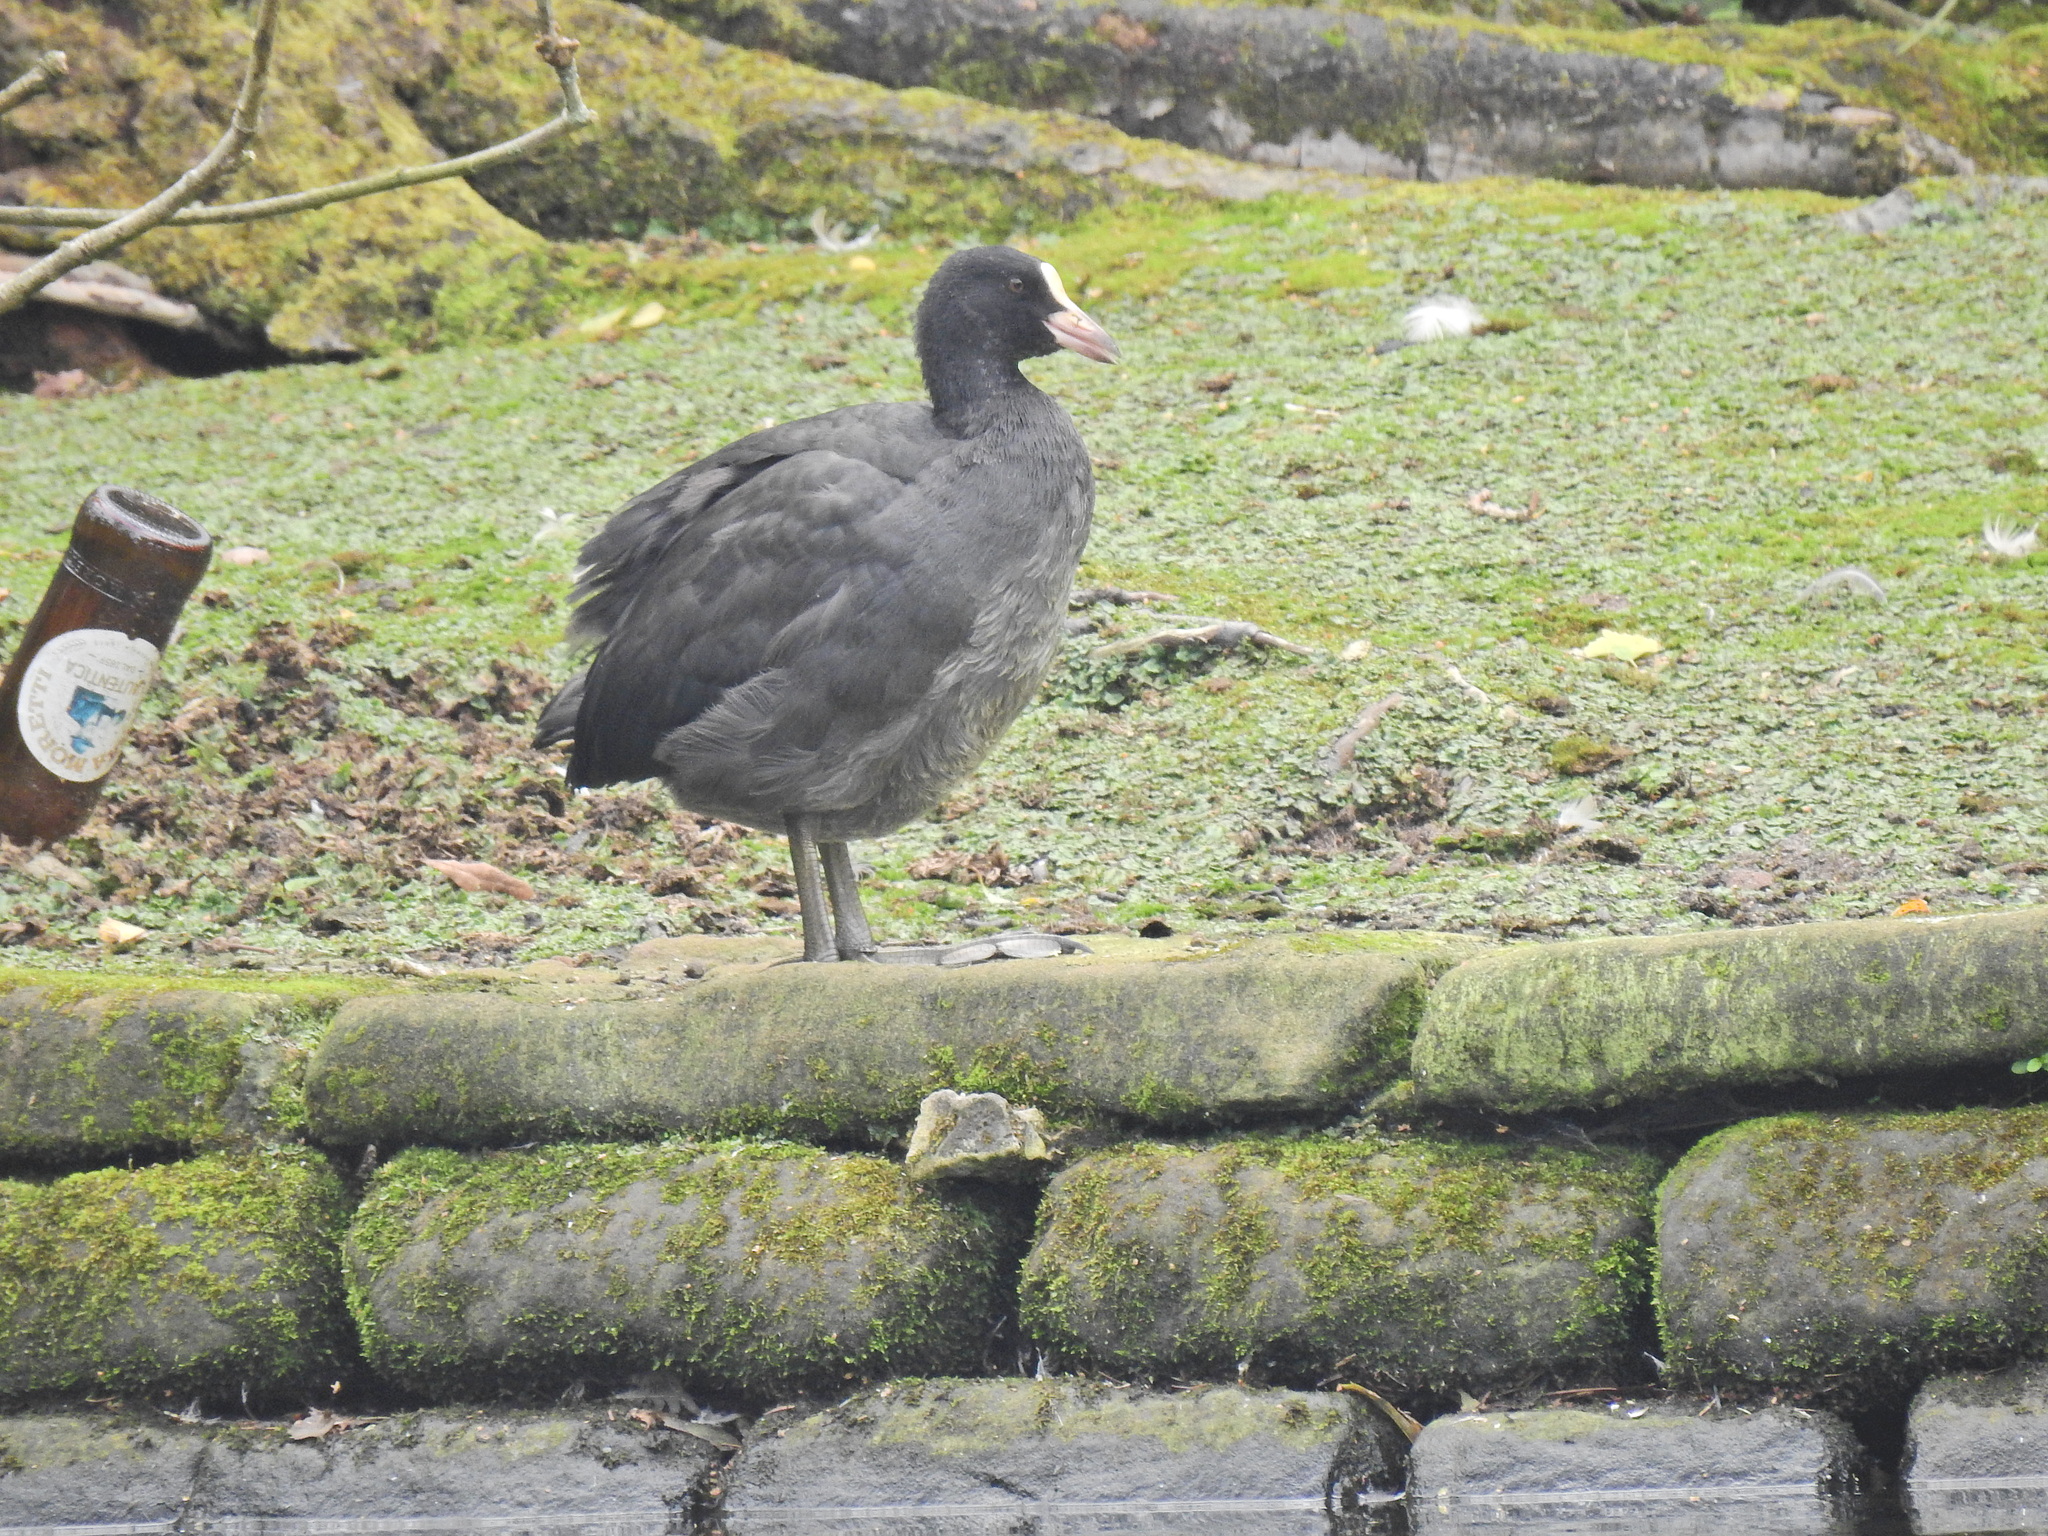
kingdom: Animalia
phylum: Chordata
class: Aves
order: Gruiformes
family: Rallidae
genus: Fulica
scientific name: Fulica atra
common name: Eurasian coot
